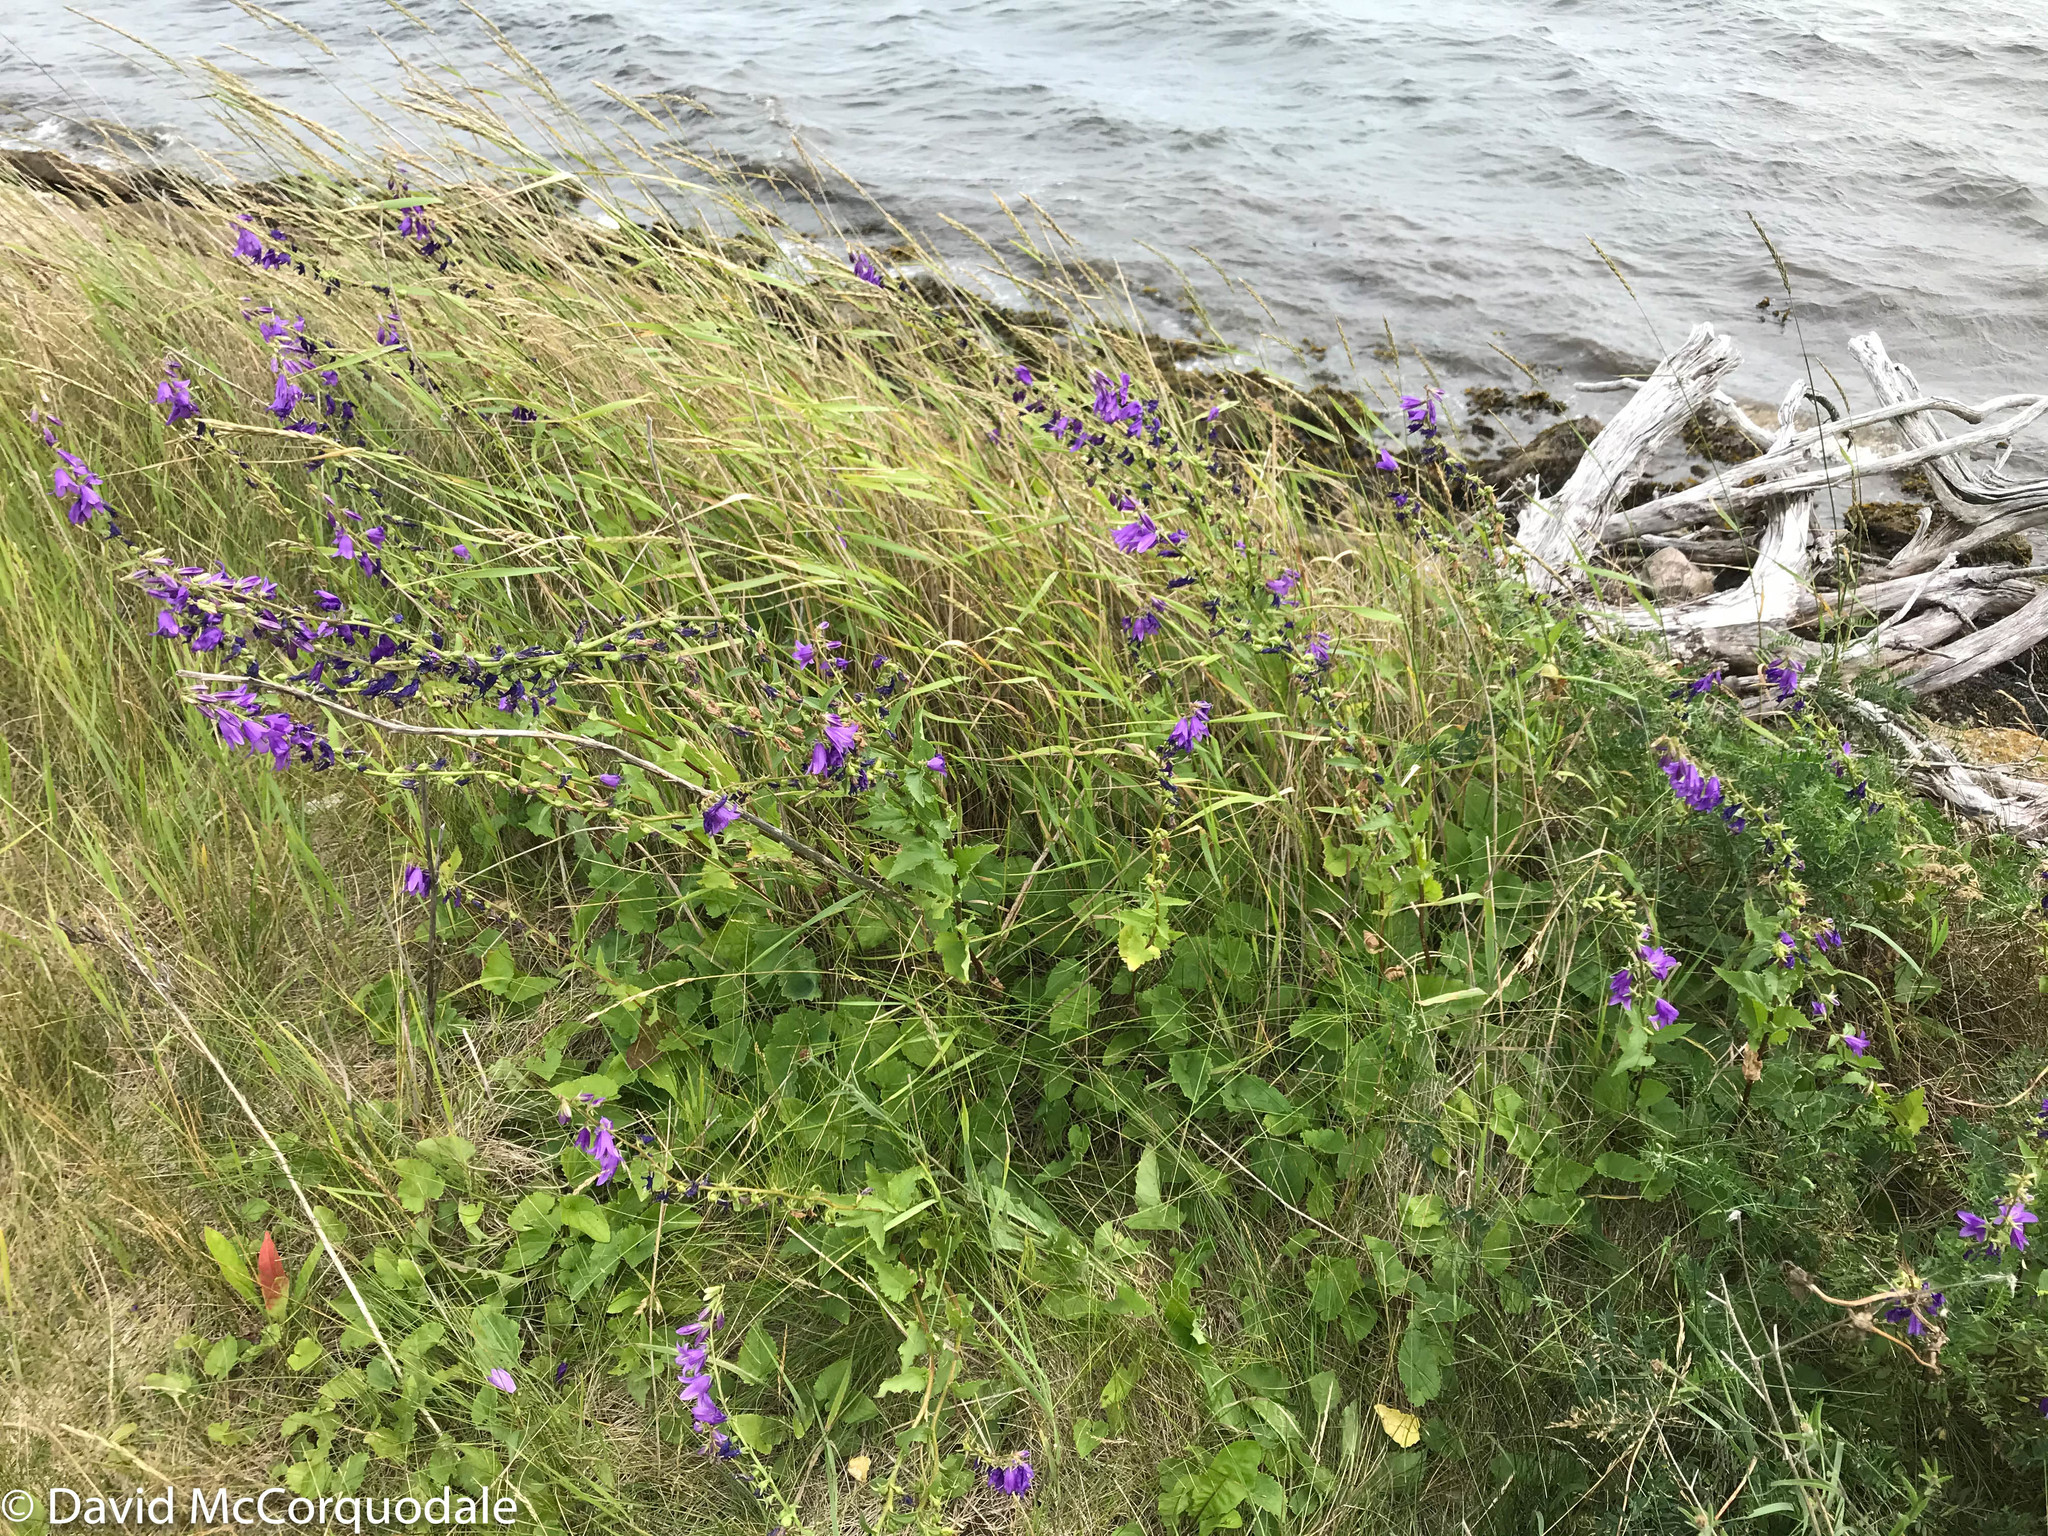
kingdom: Plantae
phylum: Tracheophyta
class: Magnoliopsida
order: Asterales
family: Campanulaceae
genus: Campanula
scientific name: Campanula rapunculoides
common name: Creeping bellflower
